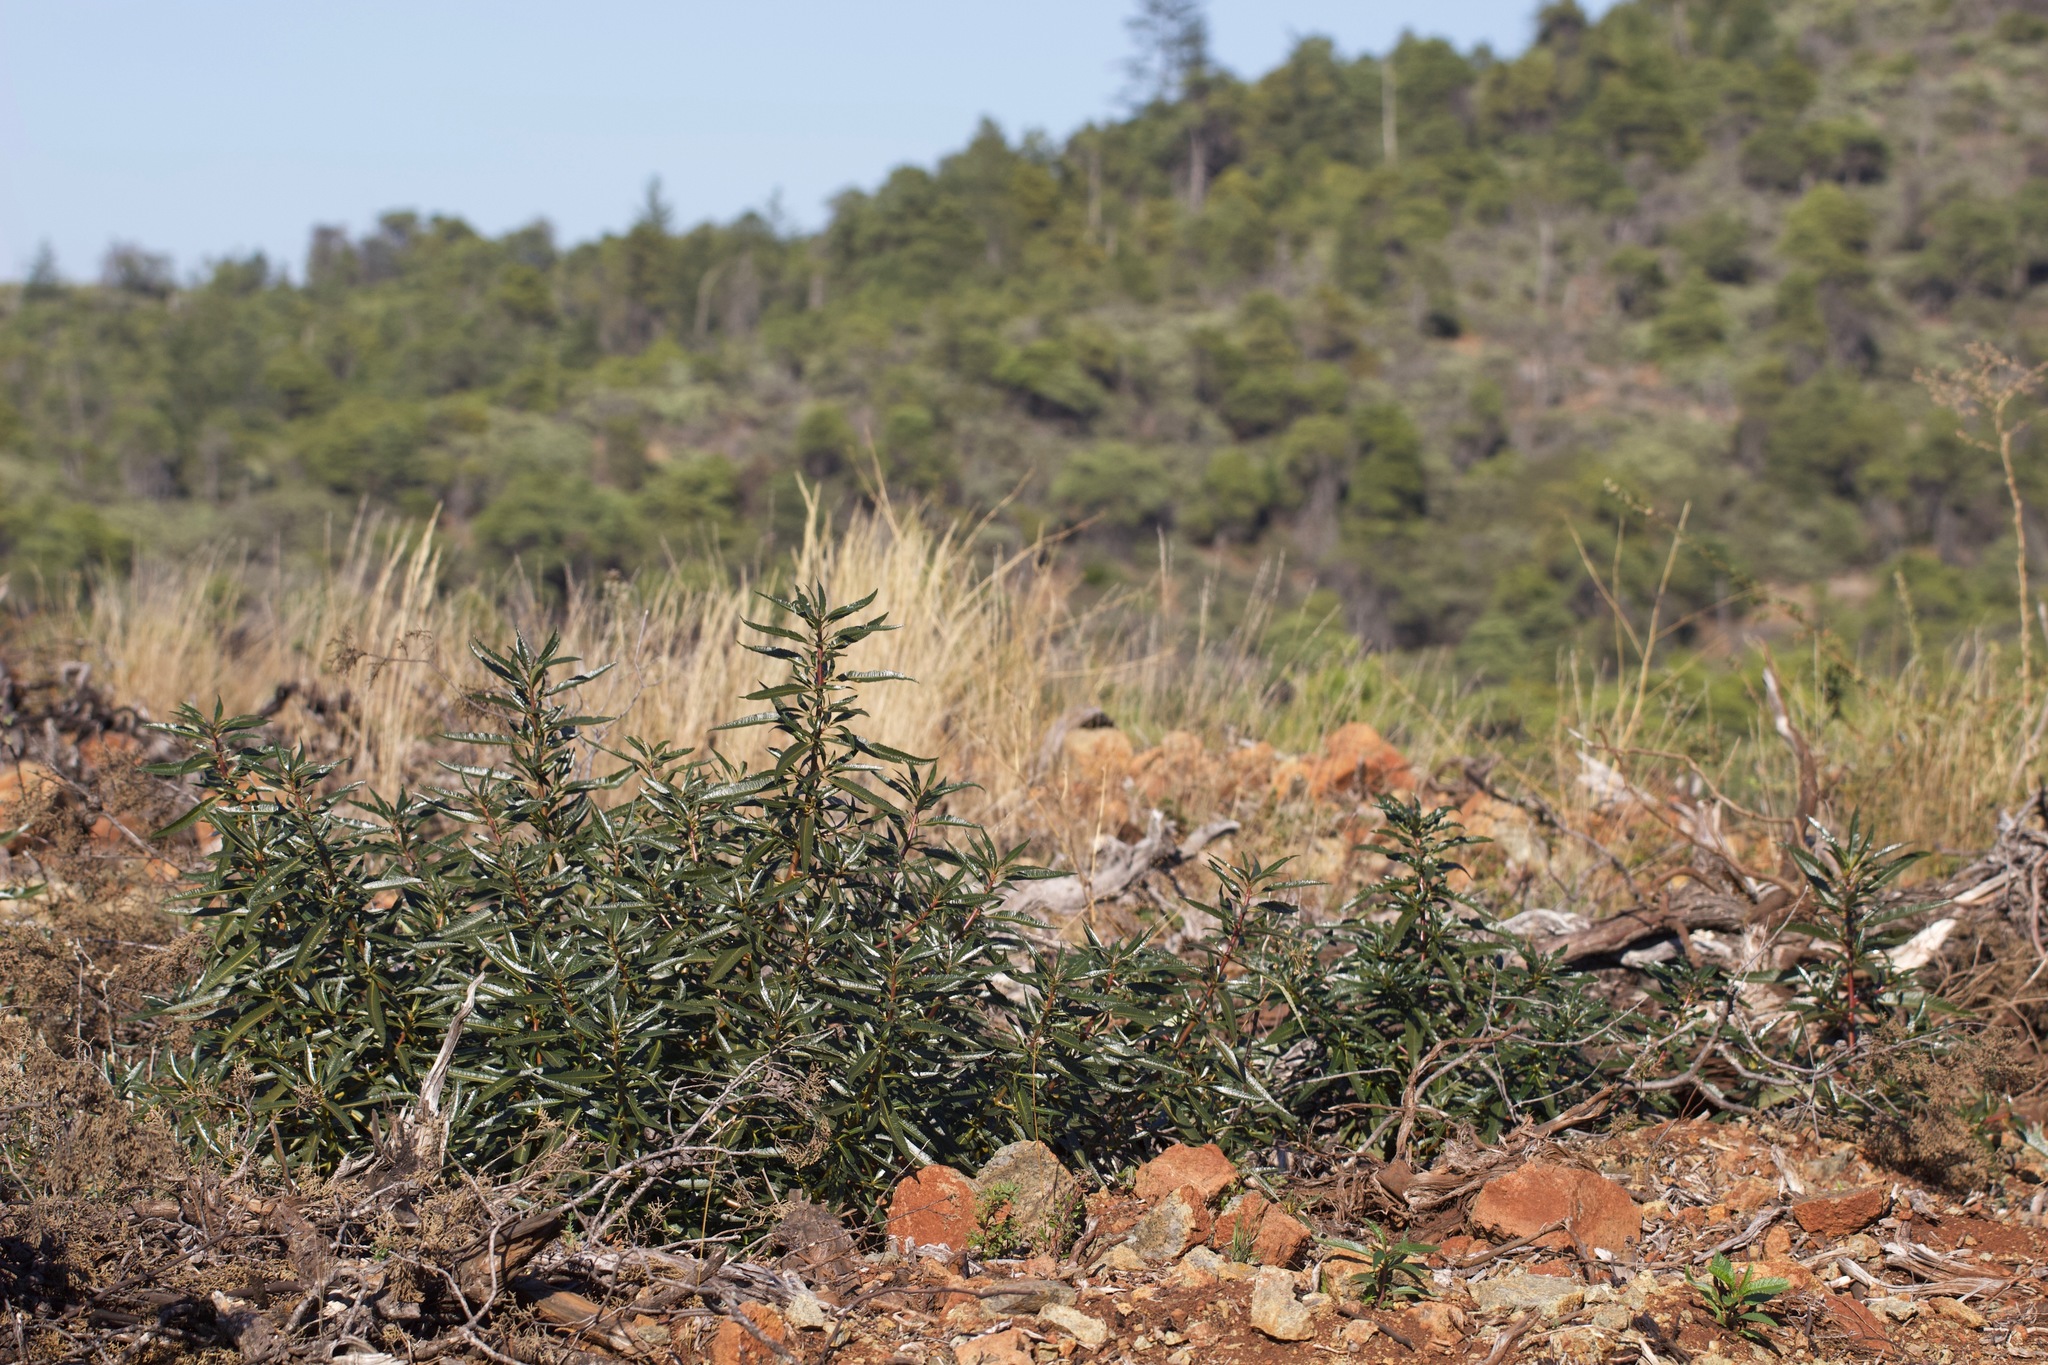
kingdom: Plantae
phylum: Tracheophyta
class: Magnoliopsida
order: Boraginales
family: Namaceae
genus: Eriodictyon
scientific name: Eriodictyon californicum
